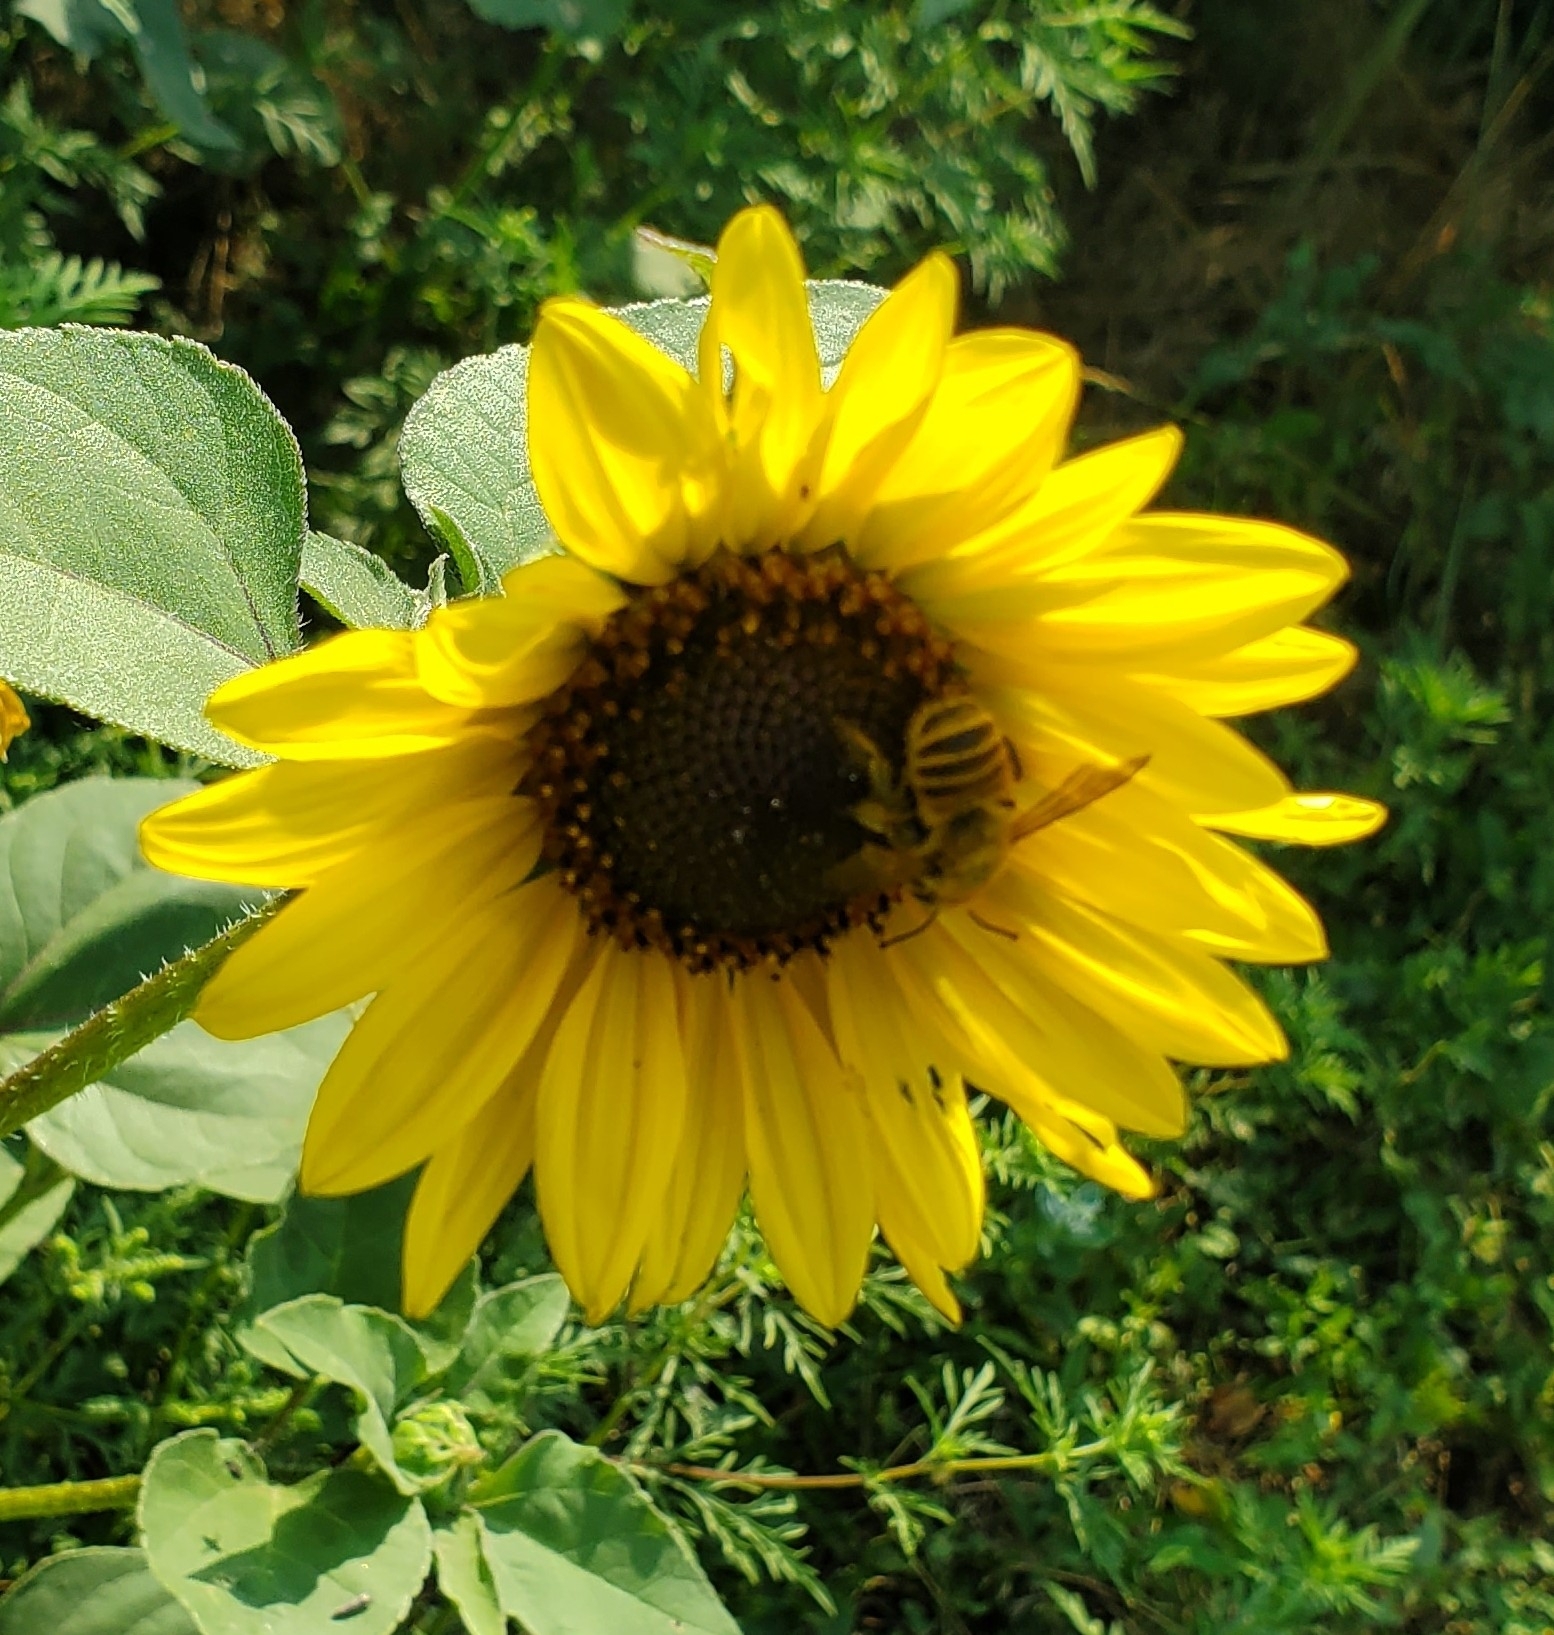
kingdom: Animalia
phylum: Arthropoda
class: Insecta
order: Hymenoptera
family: Megachilidae
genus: Megachile
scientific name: Megachile fortis
